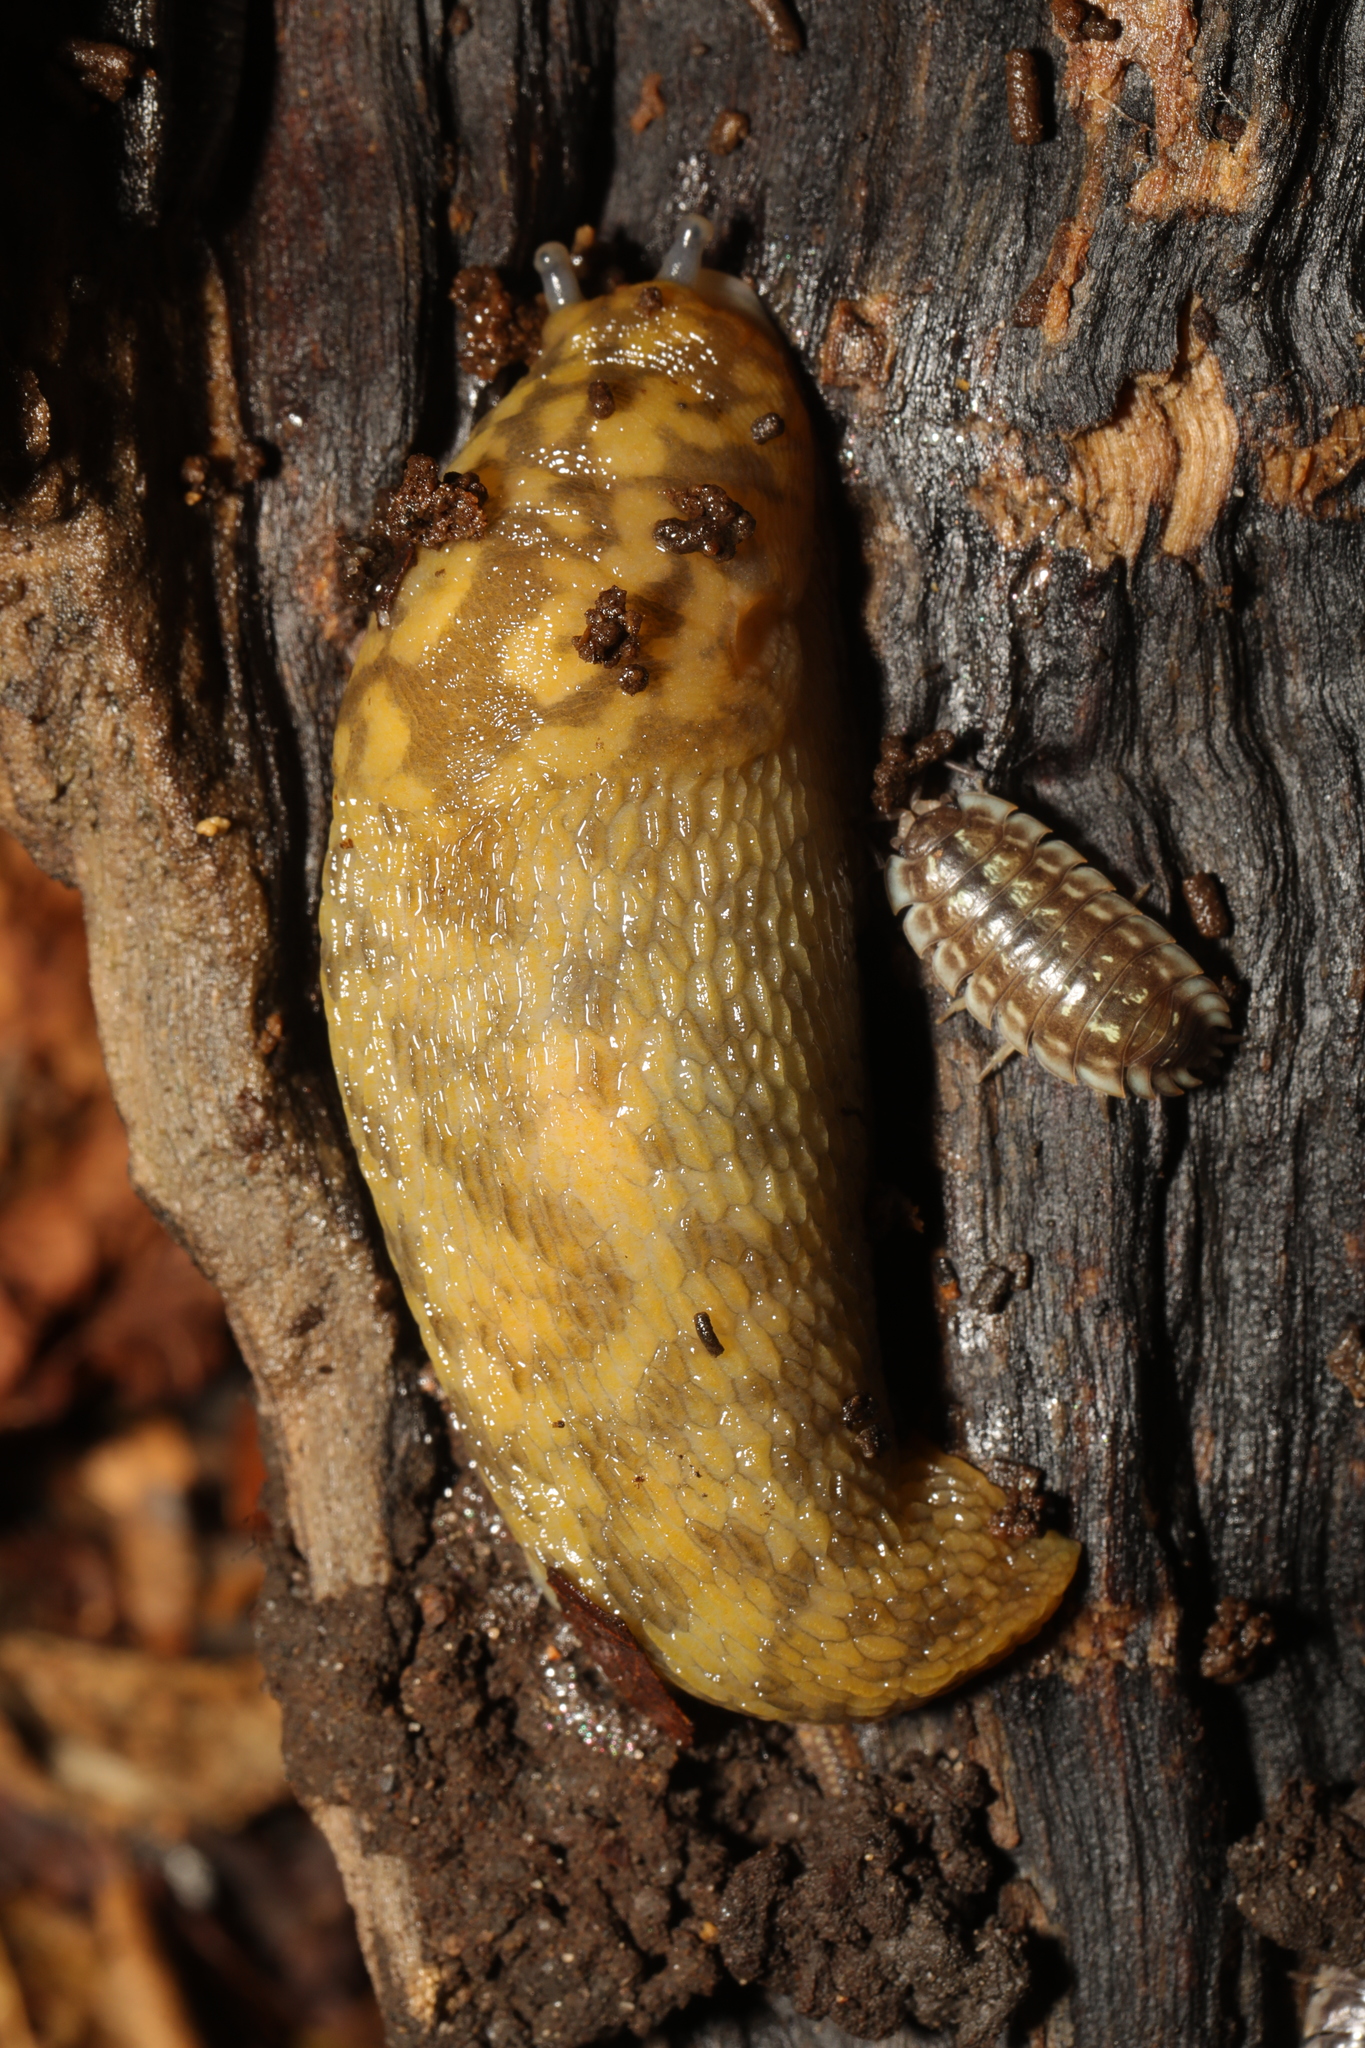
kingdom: Animalia
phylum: Mollusca
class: Gastropoda
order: Stylommatophora
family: Limacidae
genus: Limacus
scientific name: Limacus maculatus
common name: Irish yellow slug
